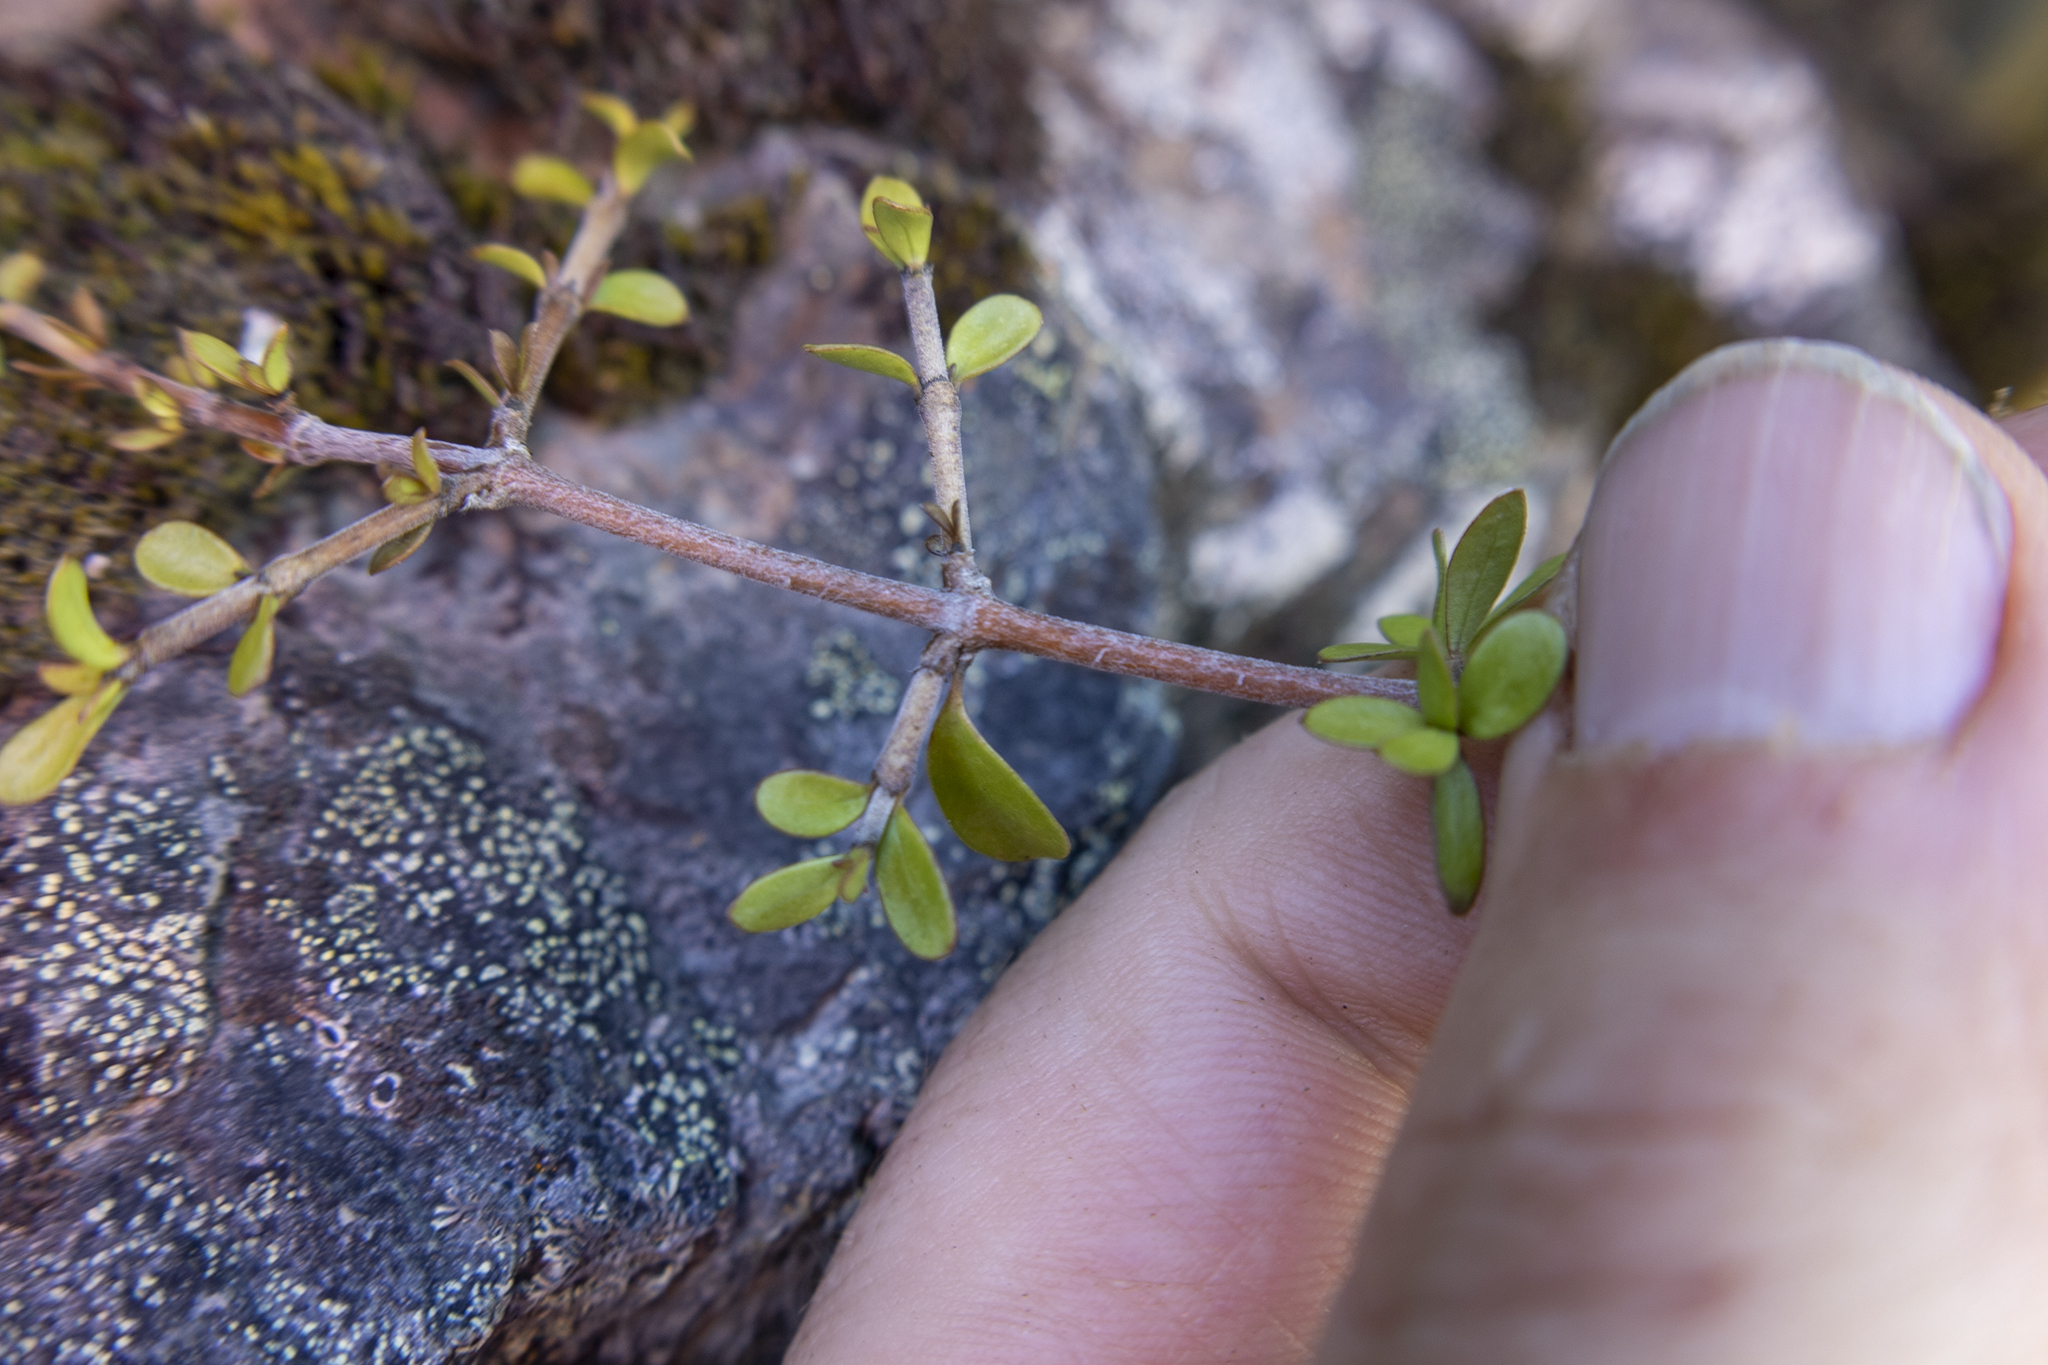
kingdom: Plantae
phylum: Tracheophyta
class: Magnoliopsida
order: Gentianales
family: Rubiaceae
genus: Coprosma
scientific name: Coprosma dumosa
